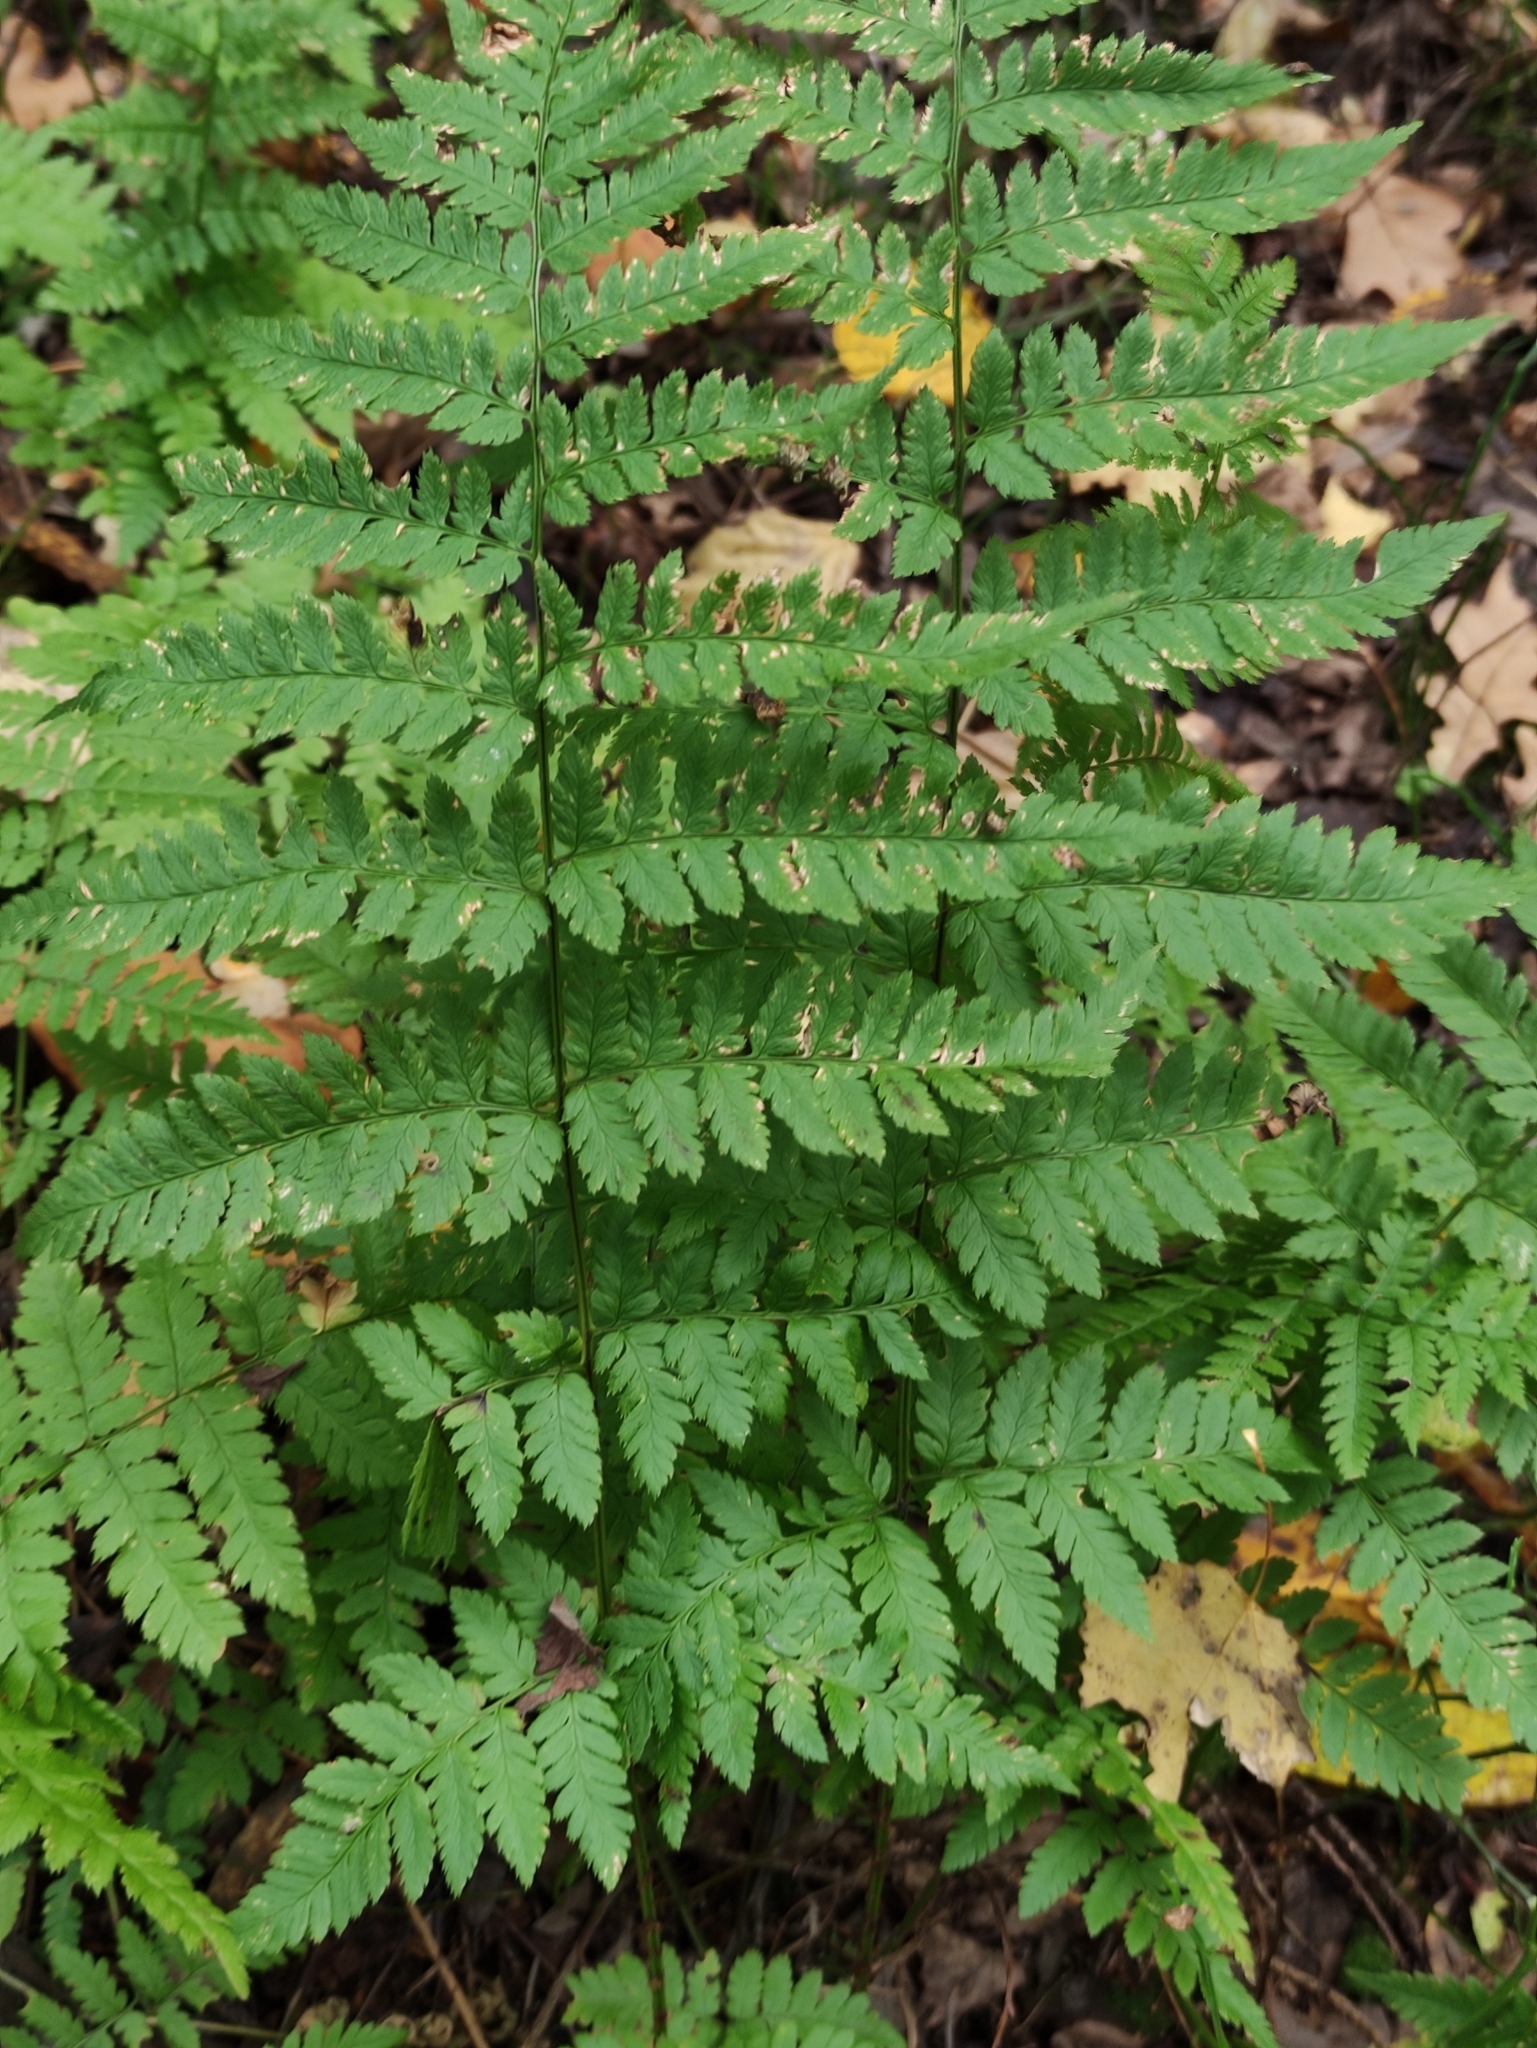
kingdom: Plantae
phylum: Tracheophyta
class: Polypodiopsida
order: Polypodiales
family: Dryopteridaceae
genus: Dryopteris
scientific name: Dryopteris carthusiana
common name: Narrow buckler-fern
